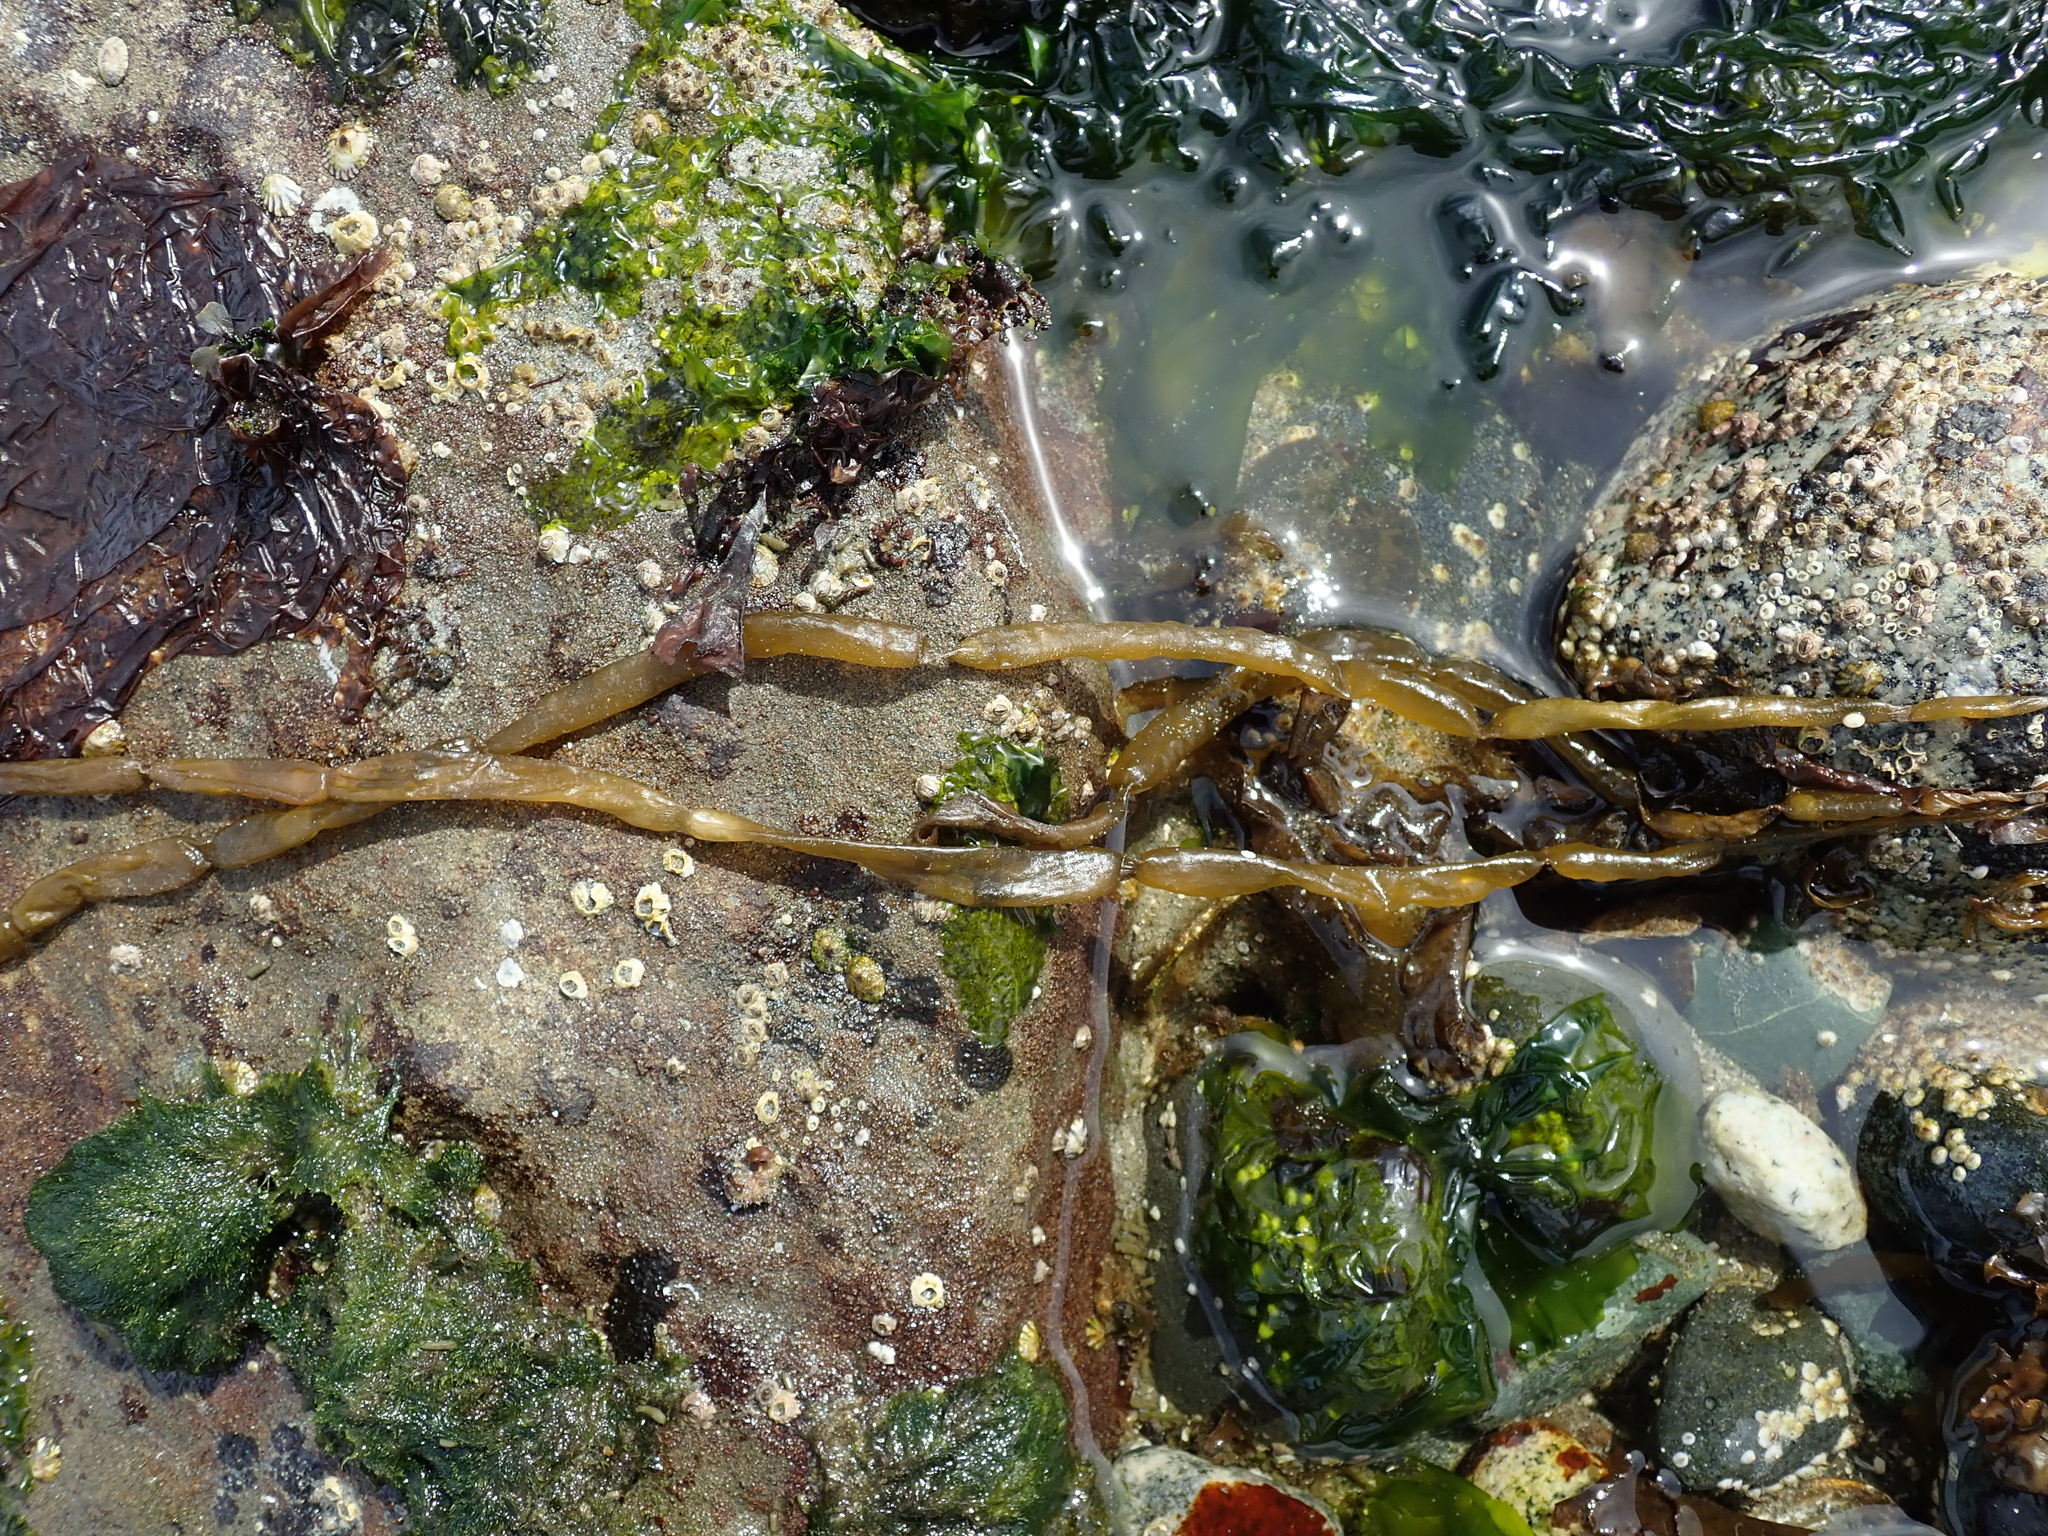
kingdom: Chromista
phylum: Ochrophyta
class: Phaeophyceae
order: Scytosiphonales
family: Scytosiphonaceae
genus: Scytosiphon
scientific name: Scytosiphon lomentaria
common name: Beanweed
